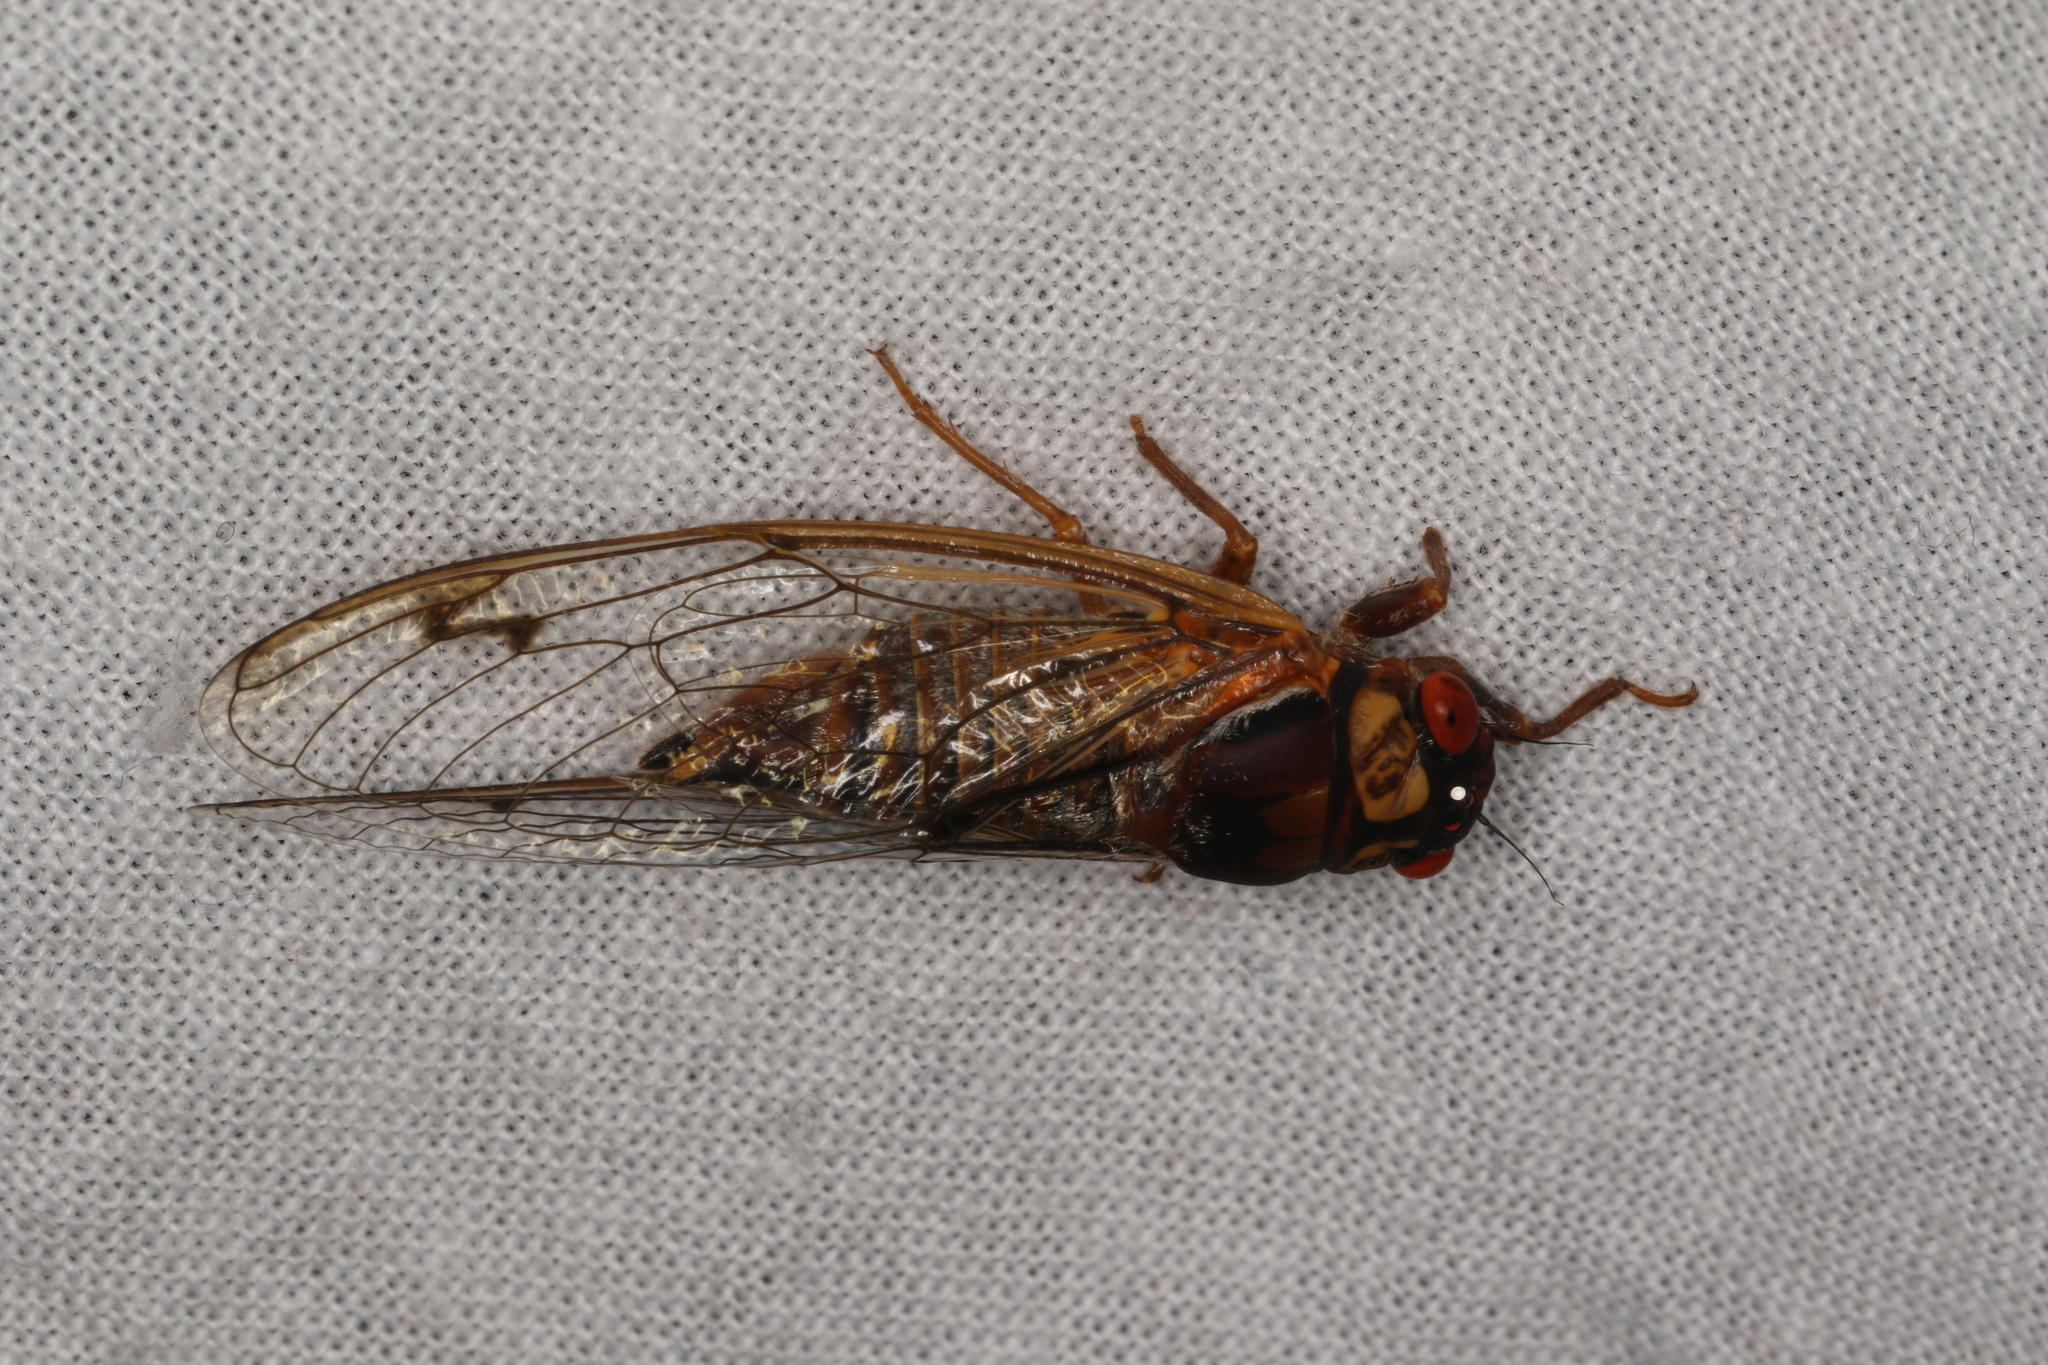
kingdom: Animalia
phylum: Arthropoda
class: Insecta
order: Hemiptera
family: Cicadidae
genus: Tryella
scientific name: Tryella burnsi
